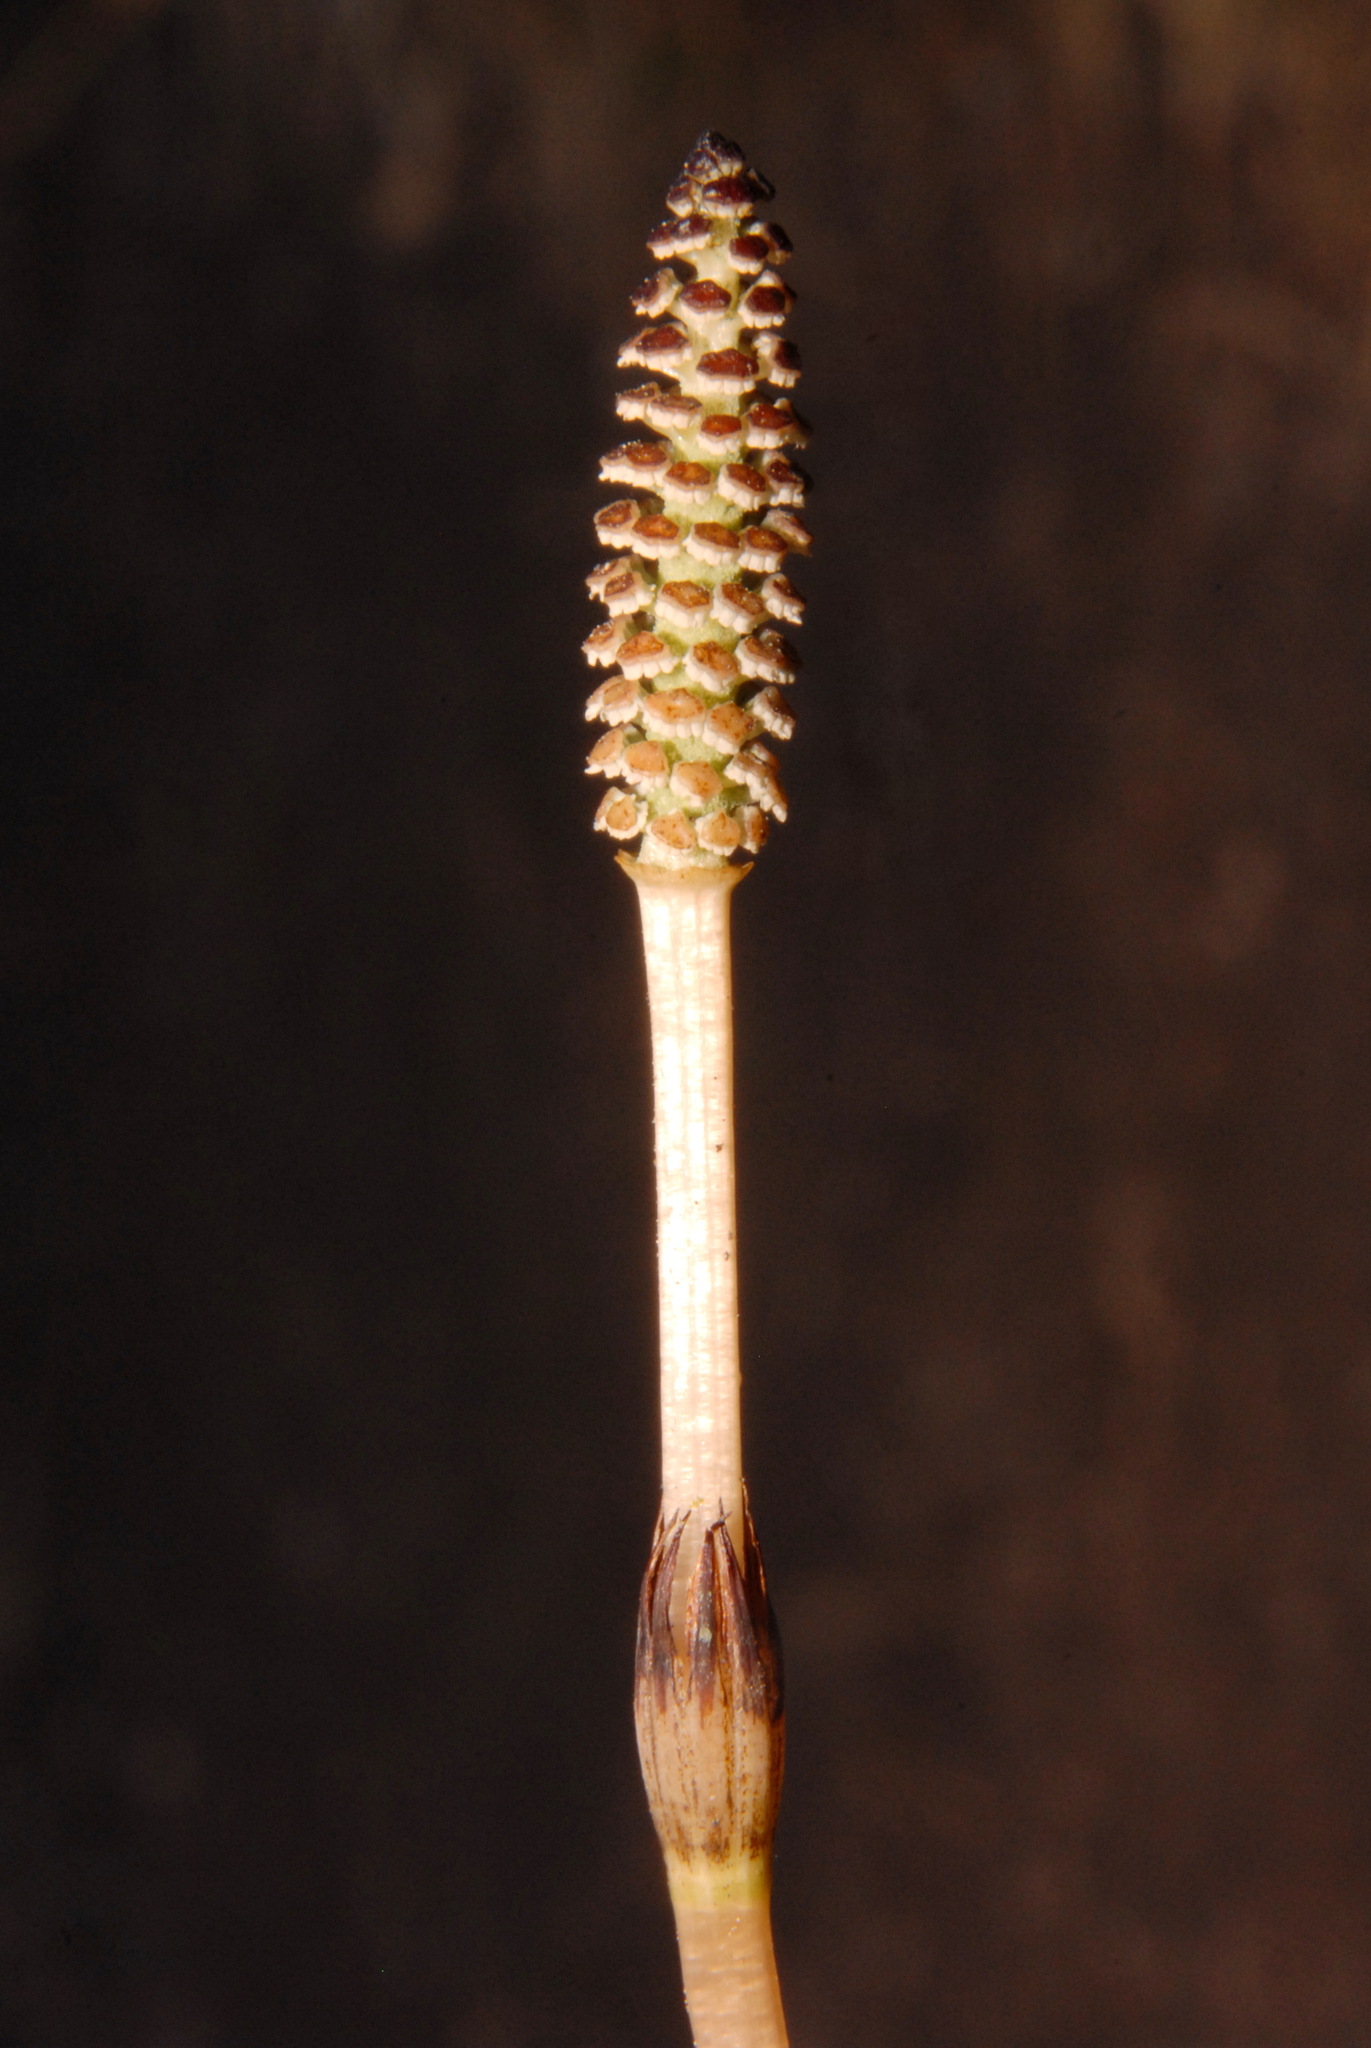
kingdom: Plantae
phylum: Tracheophyta
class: Polypodiopsida
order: Equisetales
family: Equisetaceae
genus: Equisetum
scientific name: Equisetum arvense
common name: Field horsetail
